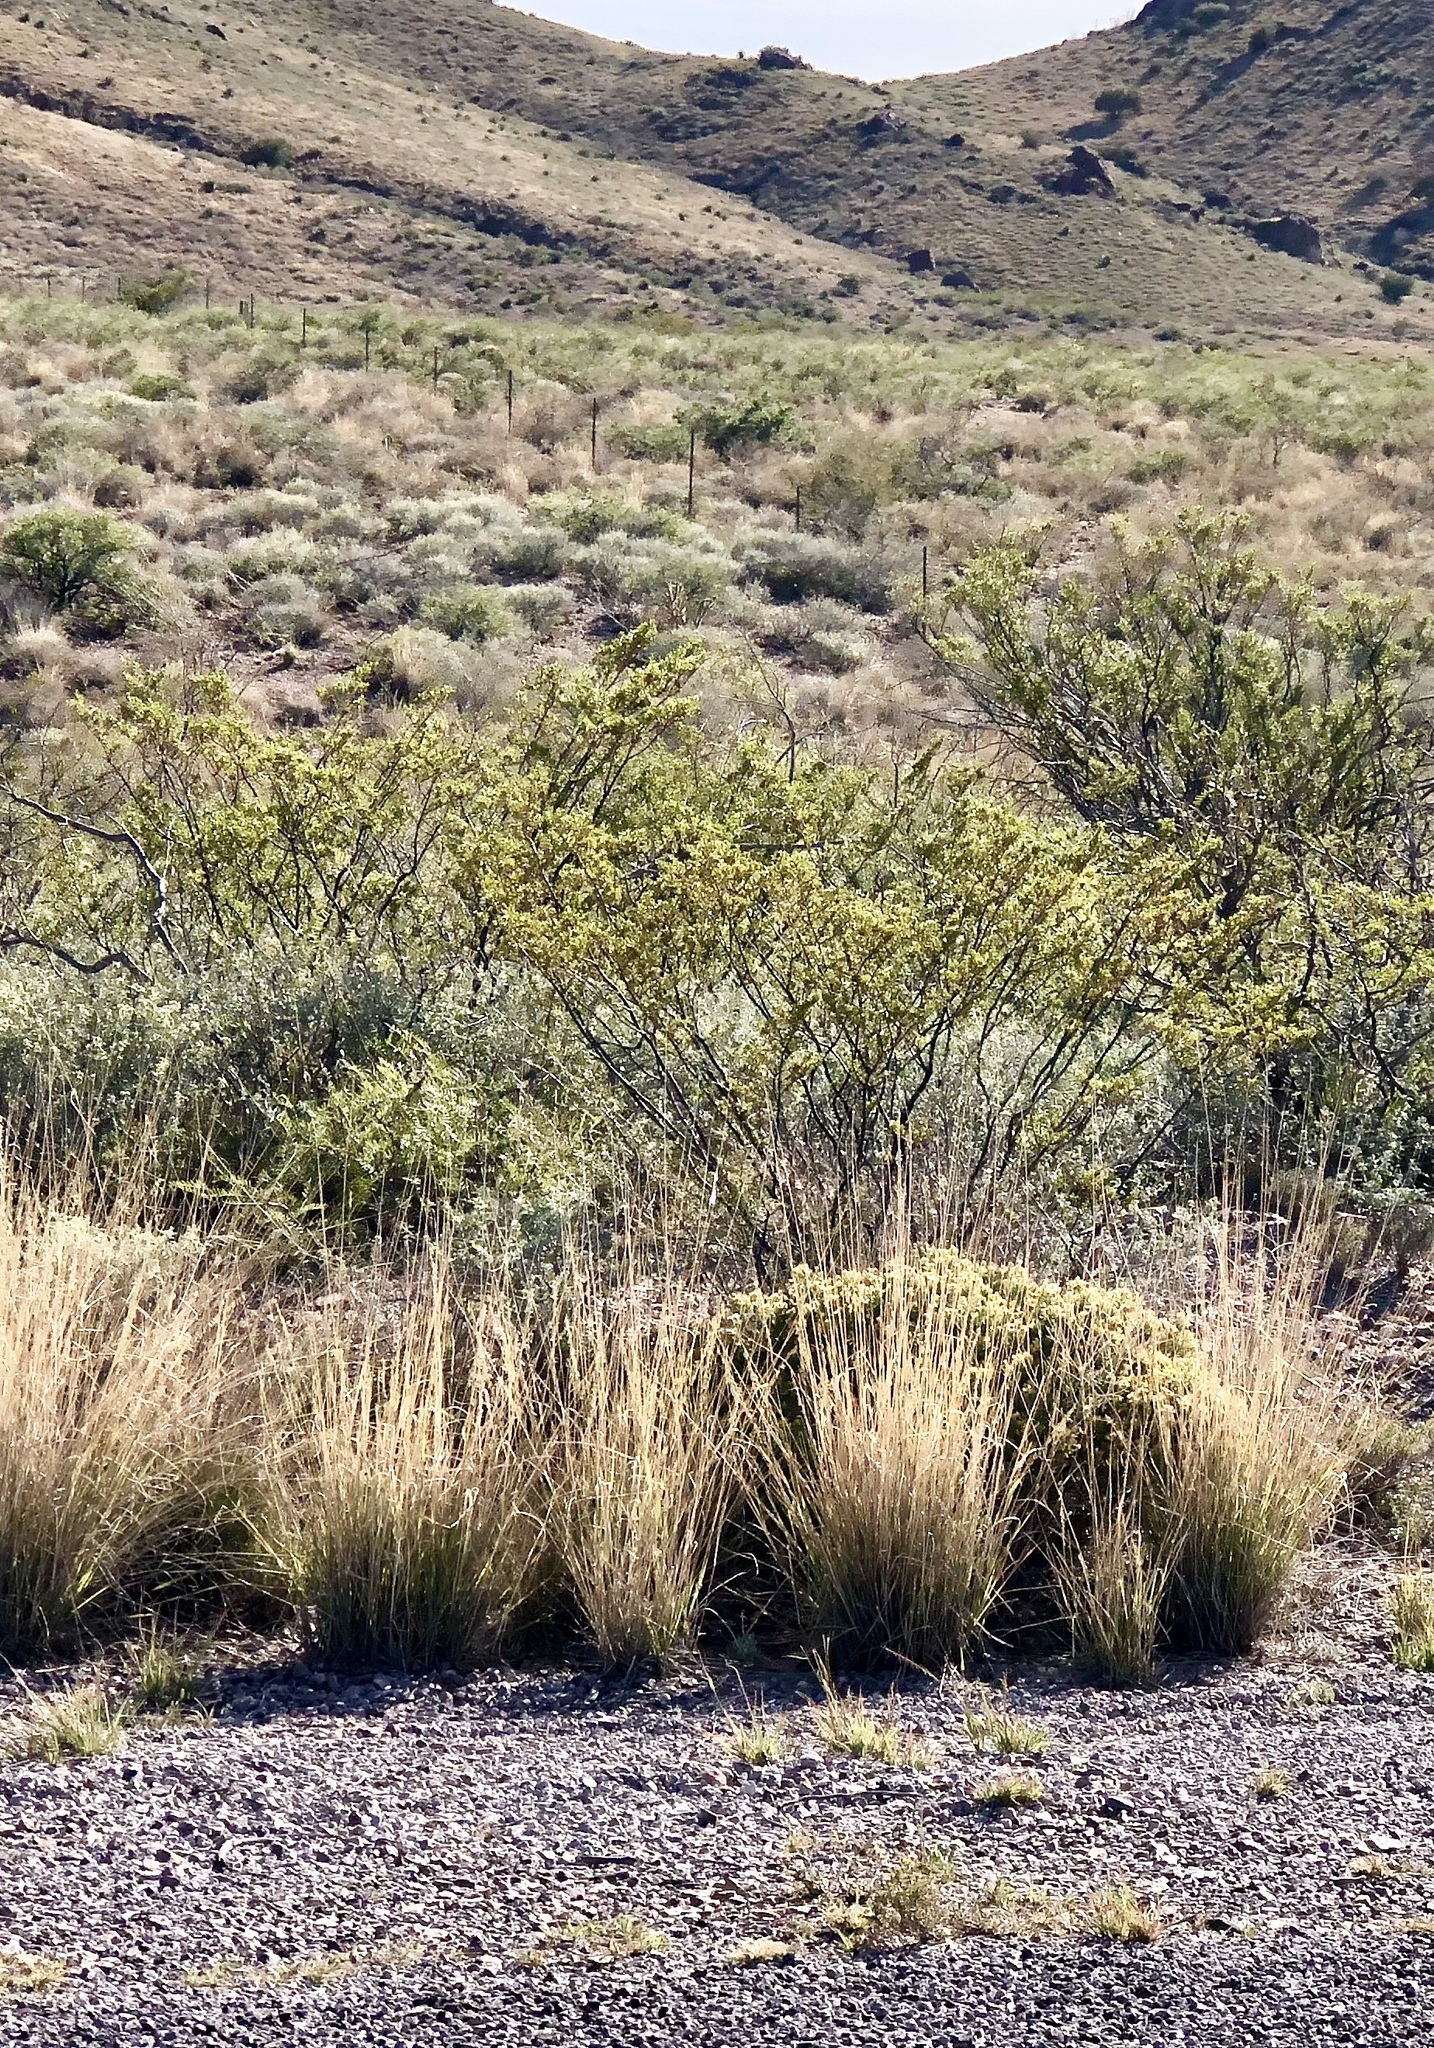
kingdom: Plantae
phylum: Tracheophyta
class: Magnoliopsida
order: Zygophyllales
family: Zygophyllaceae
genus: Larrea
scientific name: Larrea tridentata
